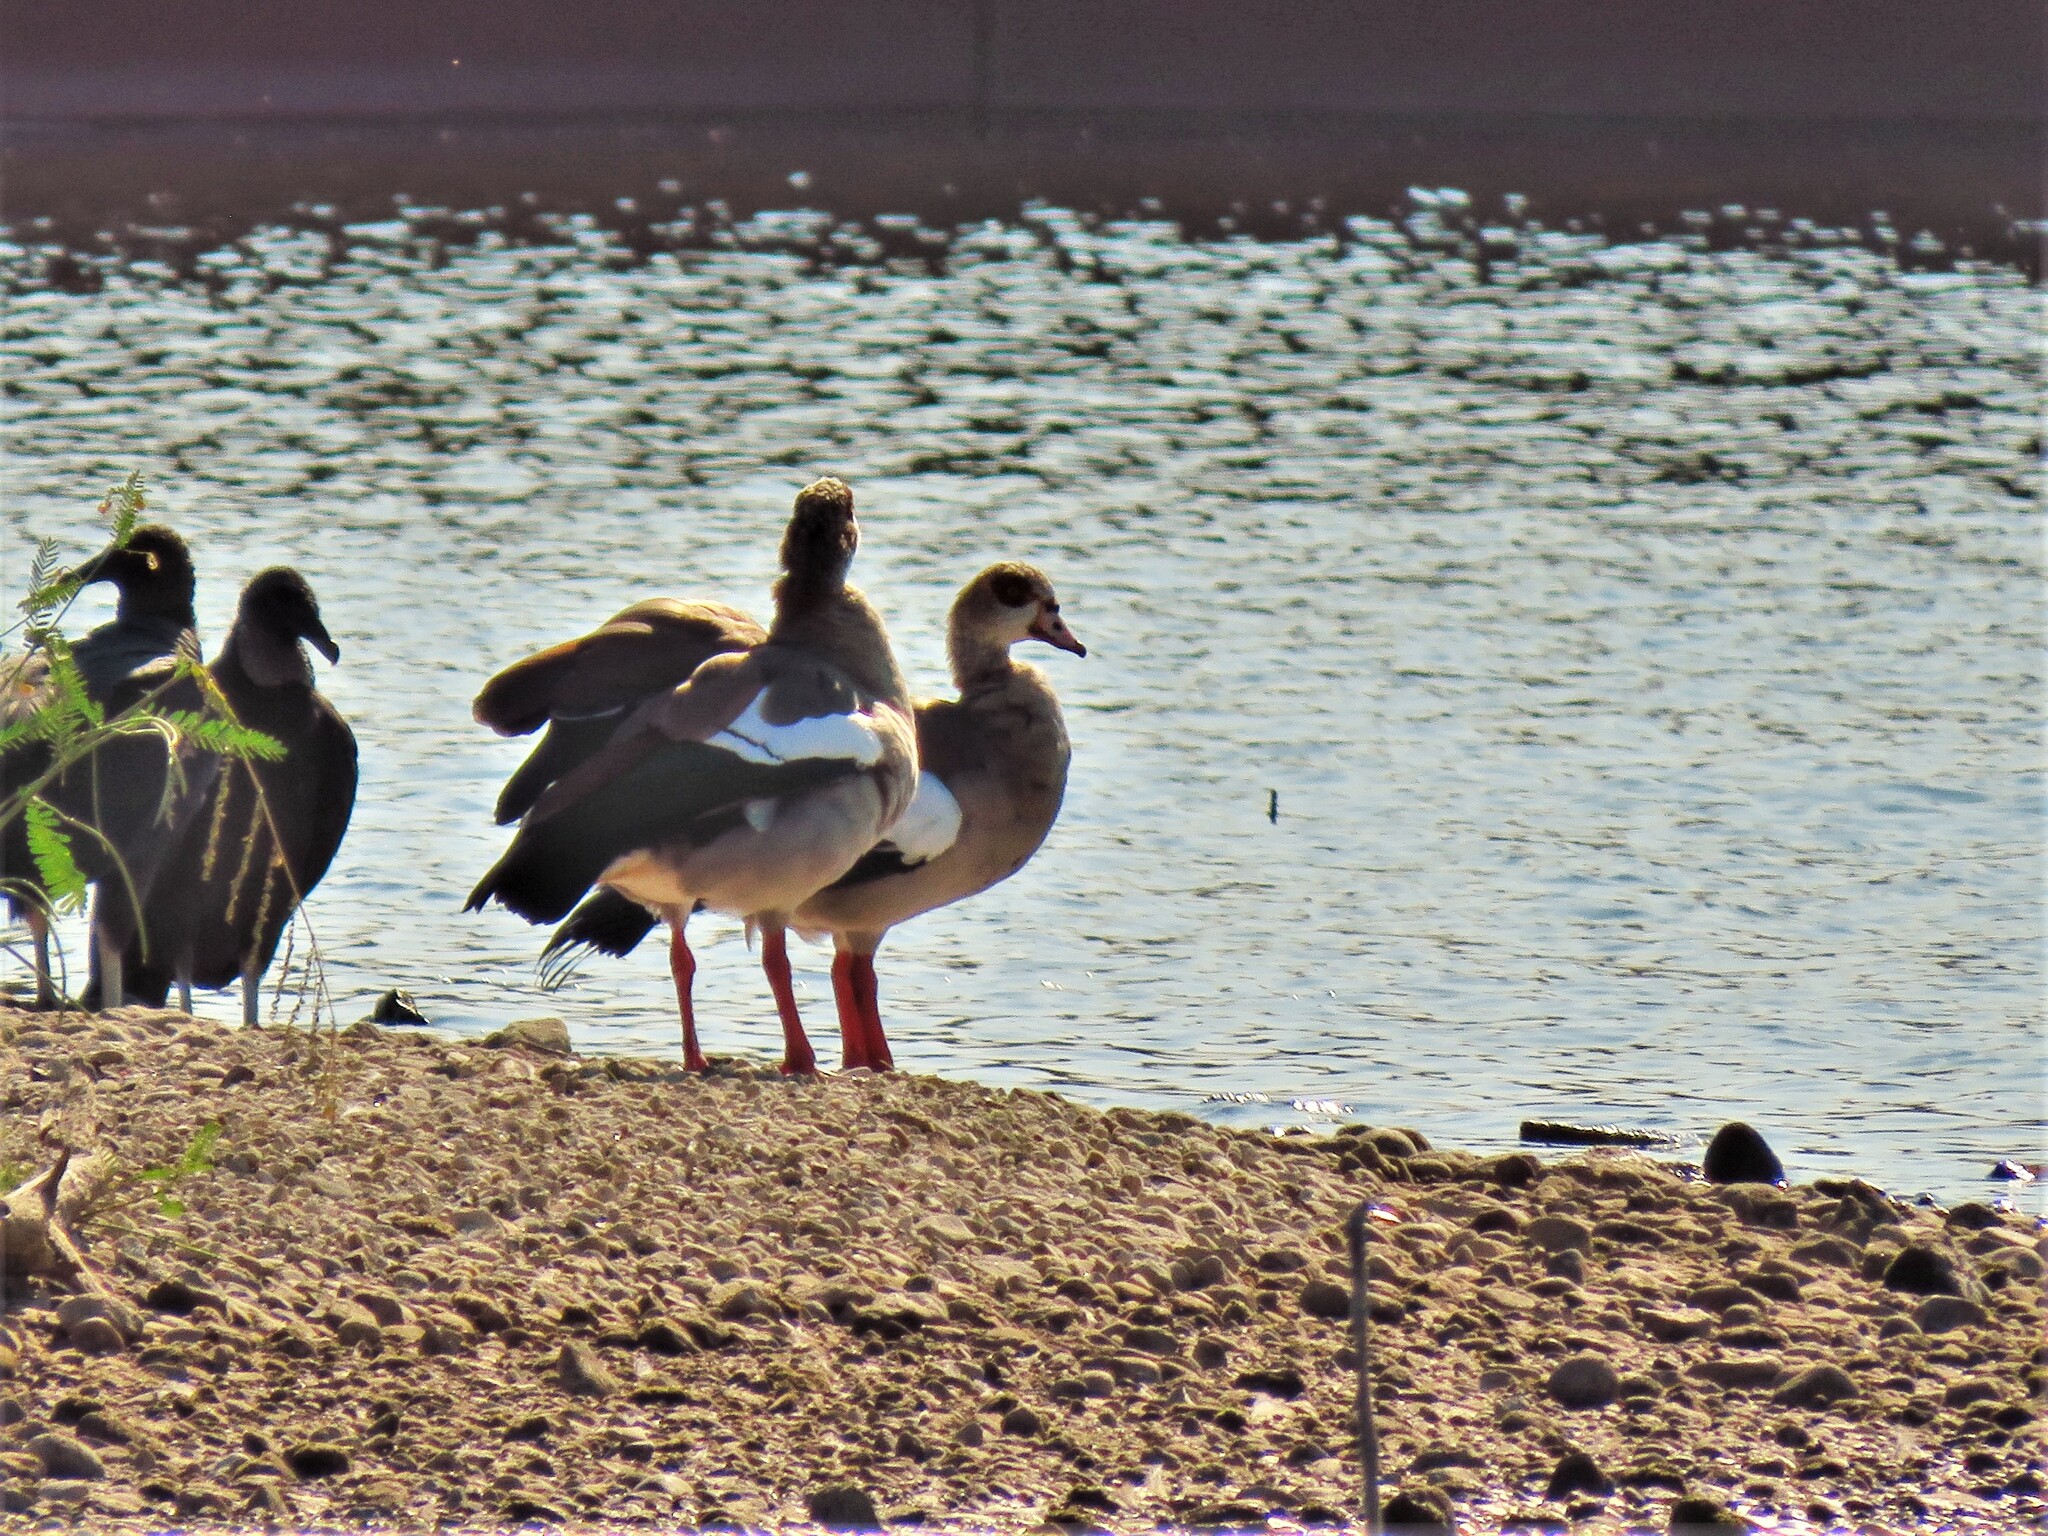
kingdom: Animalia
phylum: Chordata
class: Aves
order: Anseriformes
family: Anatidae
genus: Alopochen
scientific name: Alopochen aegyptiaca
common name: Egyptian goose
